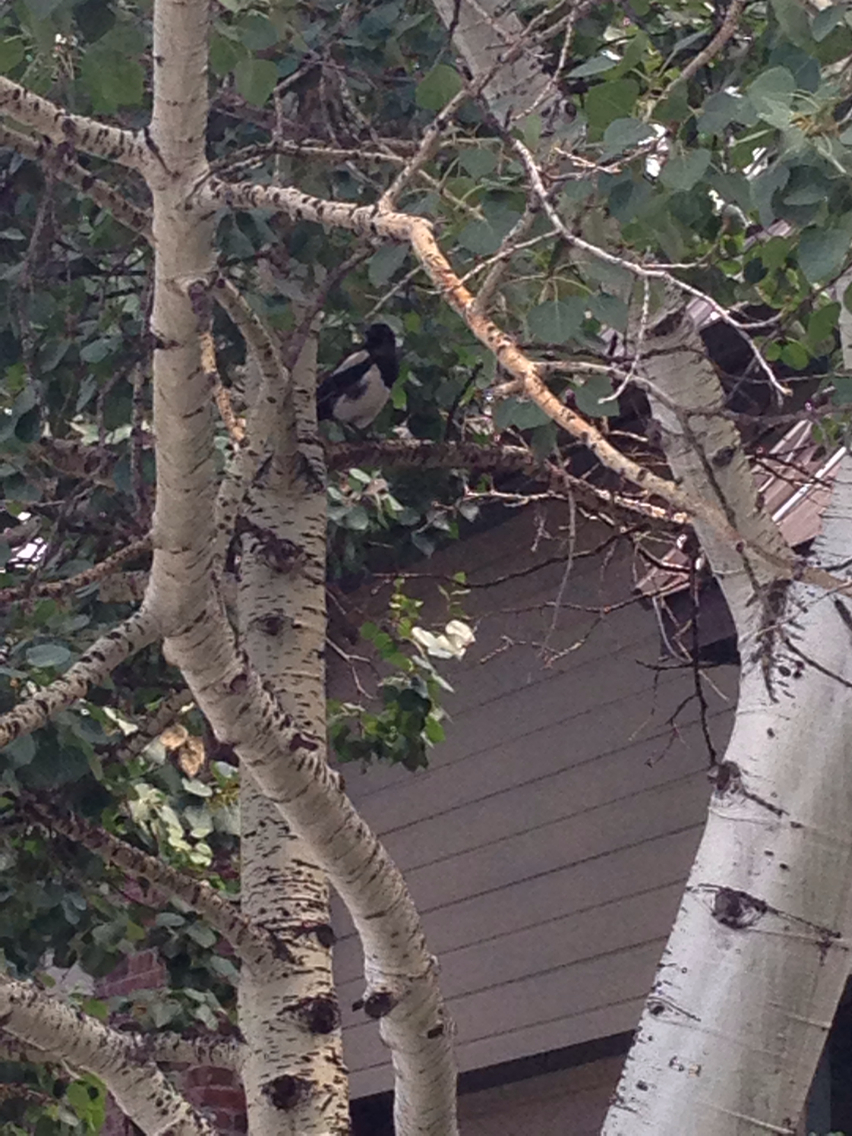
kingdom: Animalia
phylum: Chordata
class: Aves
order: Passeriformes
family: Corvidae
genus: Pica
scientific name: Pica hudsonia
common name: Black-billed magpie
